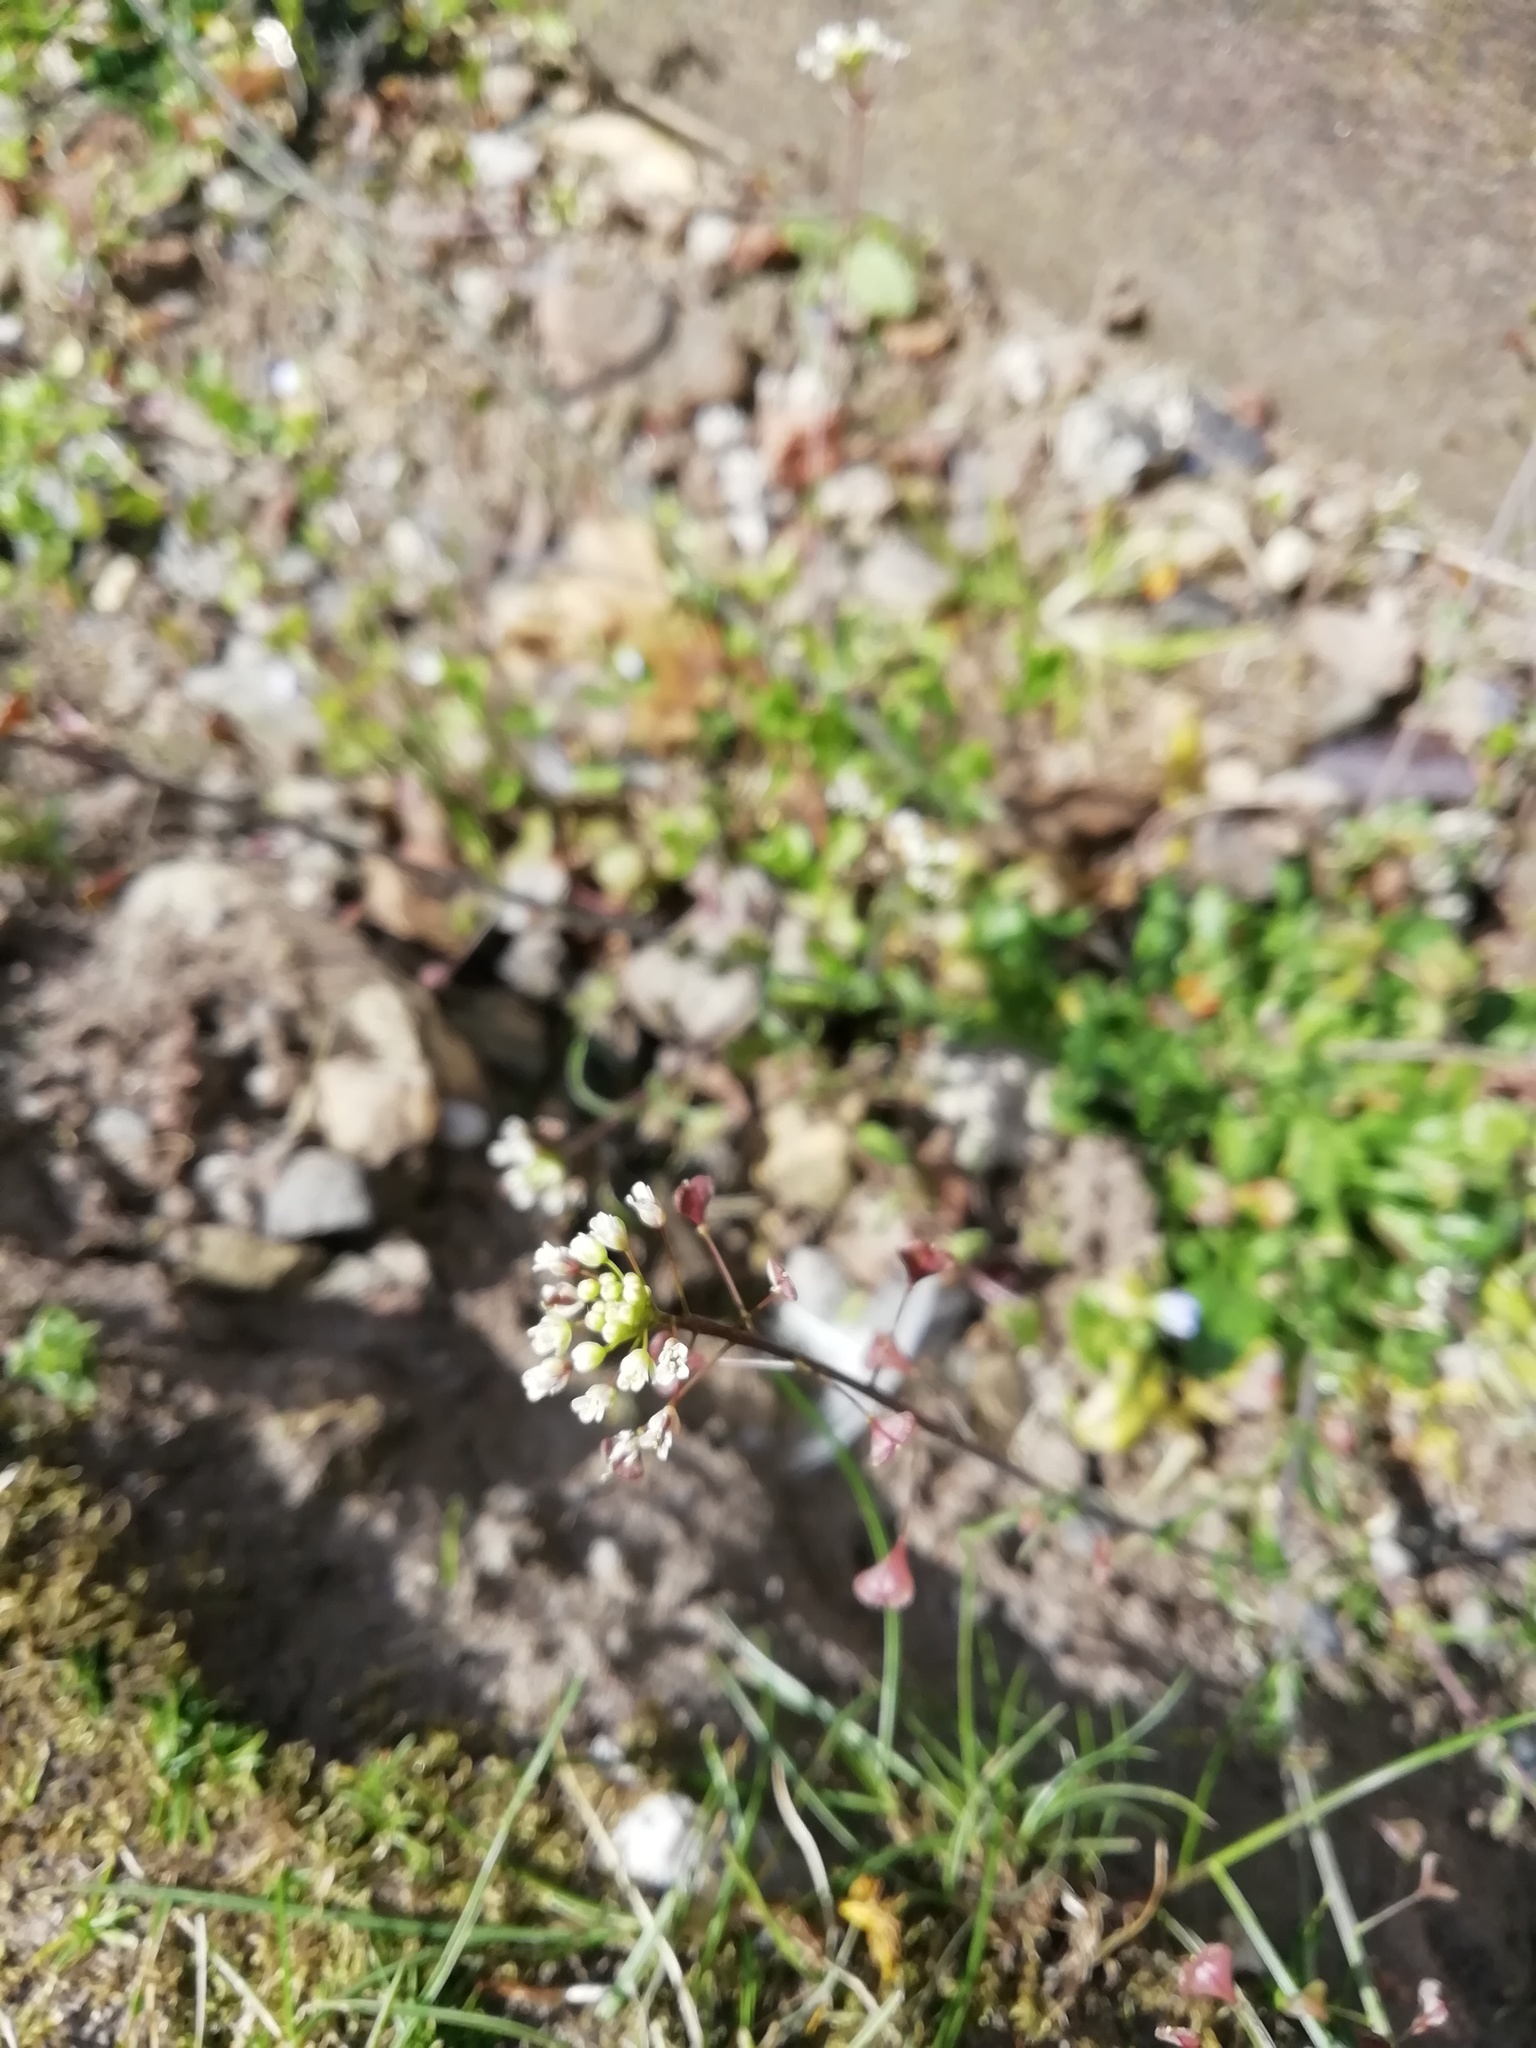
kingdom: Plantae
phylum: Tracheophyta
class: Magnoliopsida
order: Brassicales
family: Brassicaceae
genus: Capsella
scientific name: Capsella bursa-pastoris
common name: Shepherd's purse
